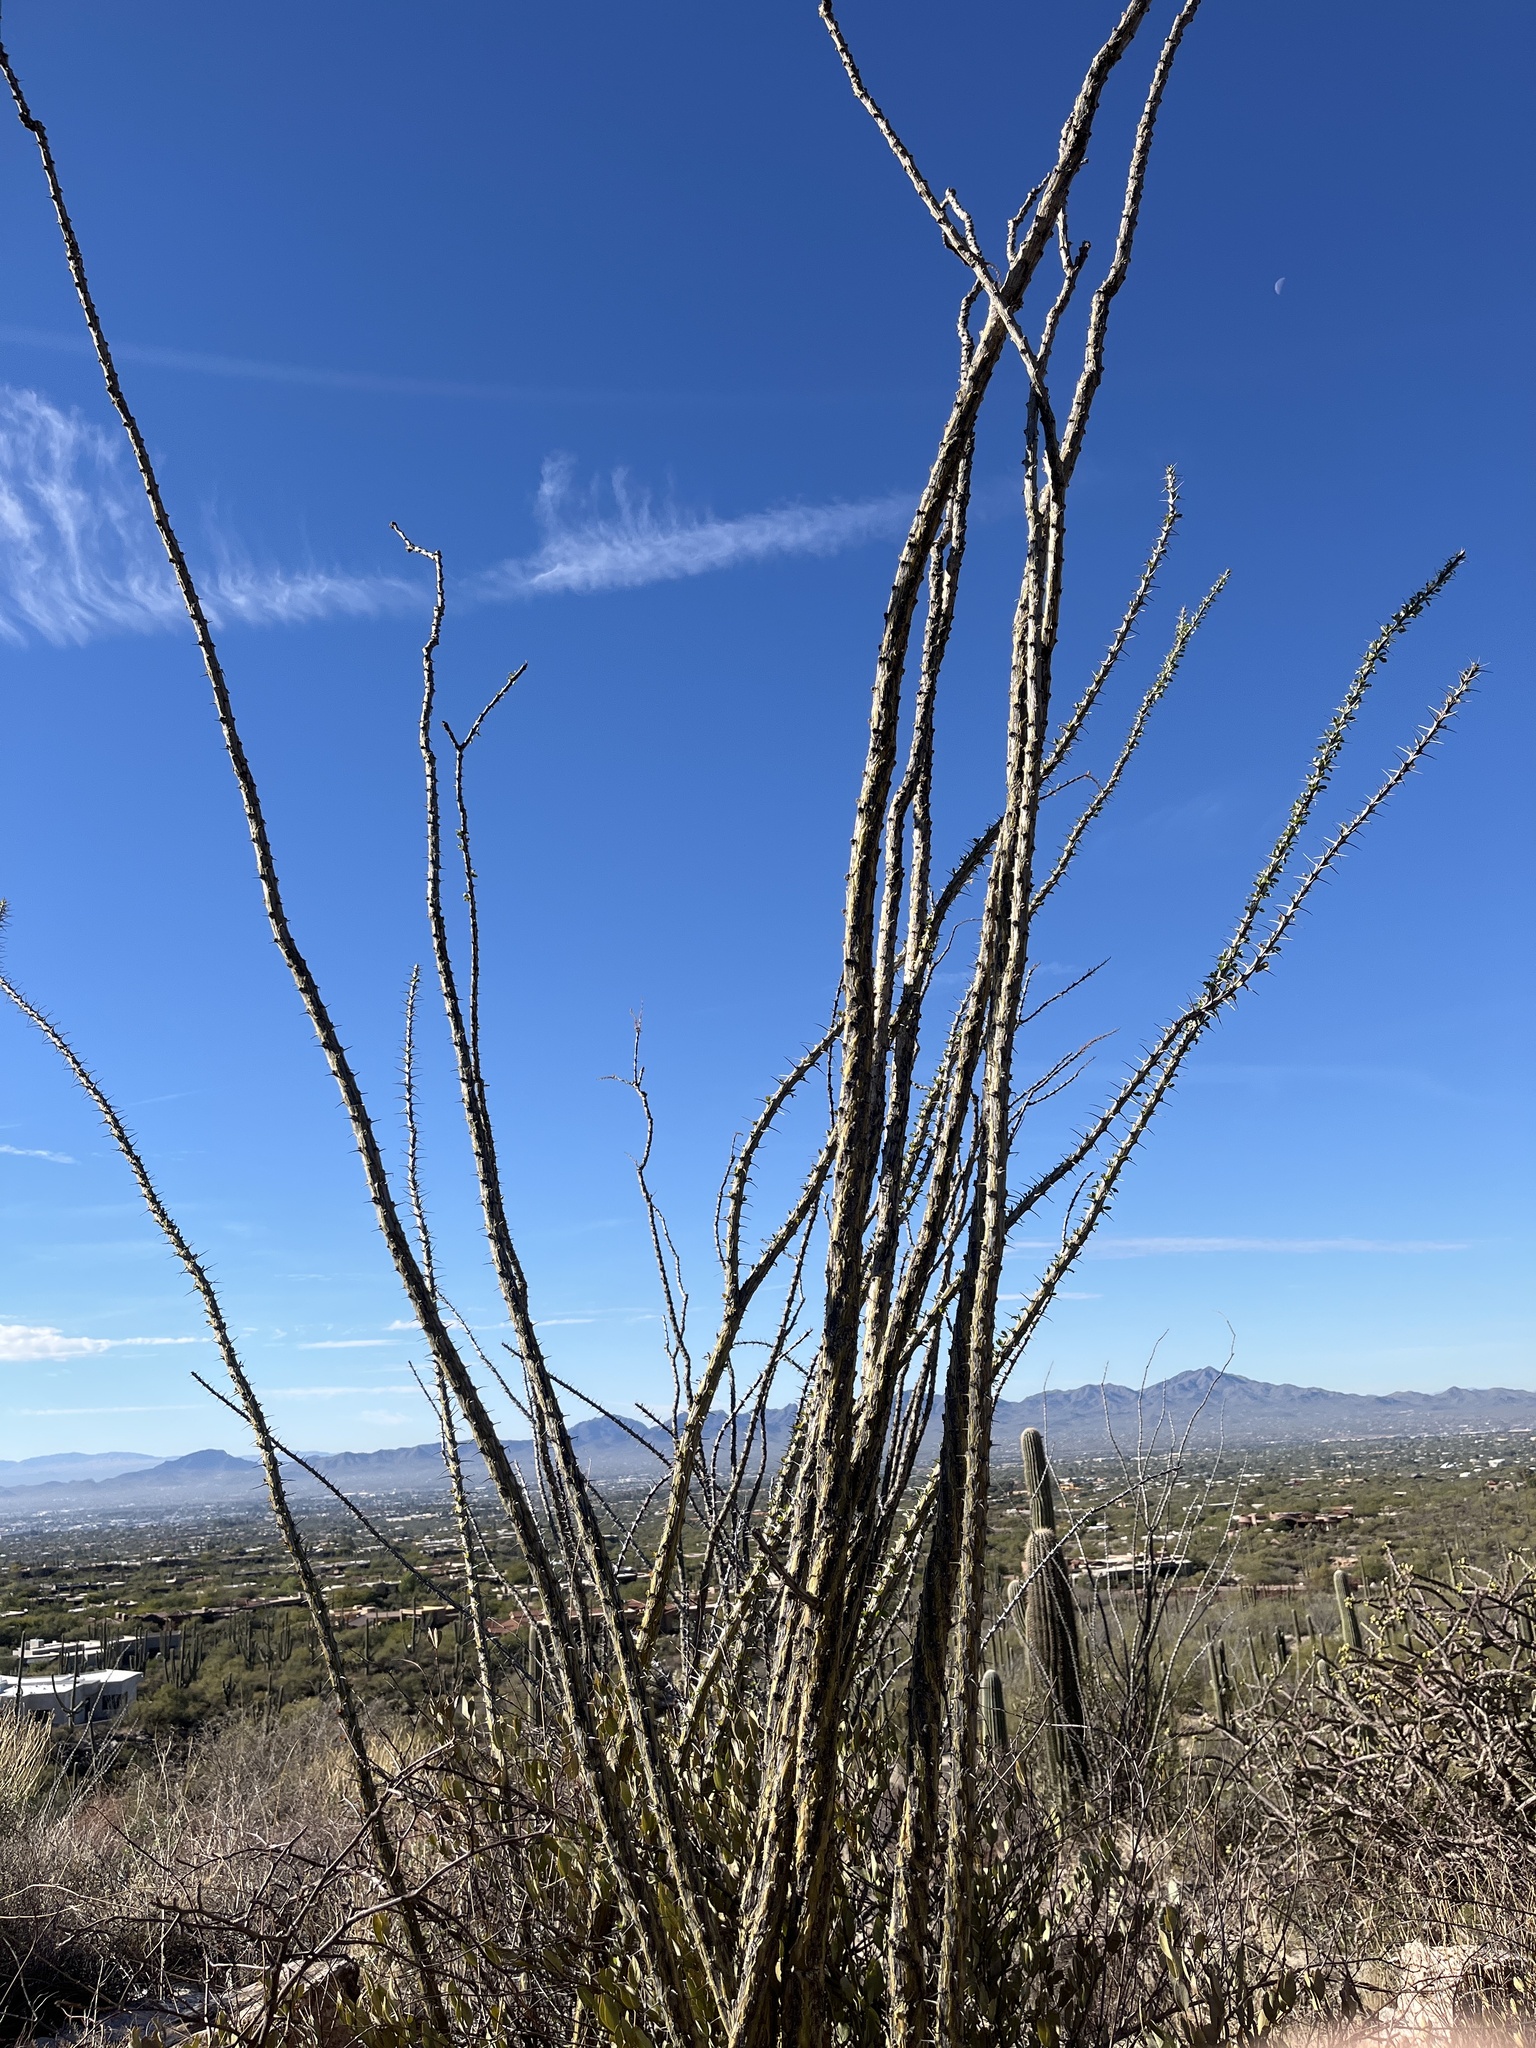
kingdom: Plantae
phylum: Tracheophyta
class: Magnoliopsida
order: Ericales
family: Fouquieriaceae
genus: Fouquieria
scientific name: Fouquieria splendens
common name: Vine-cactus
